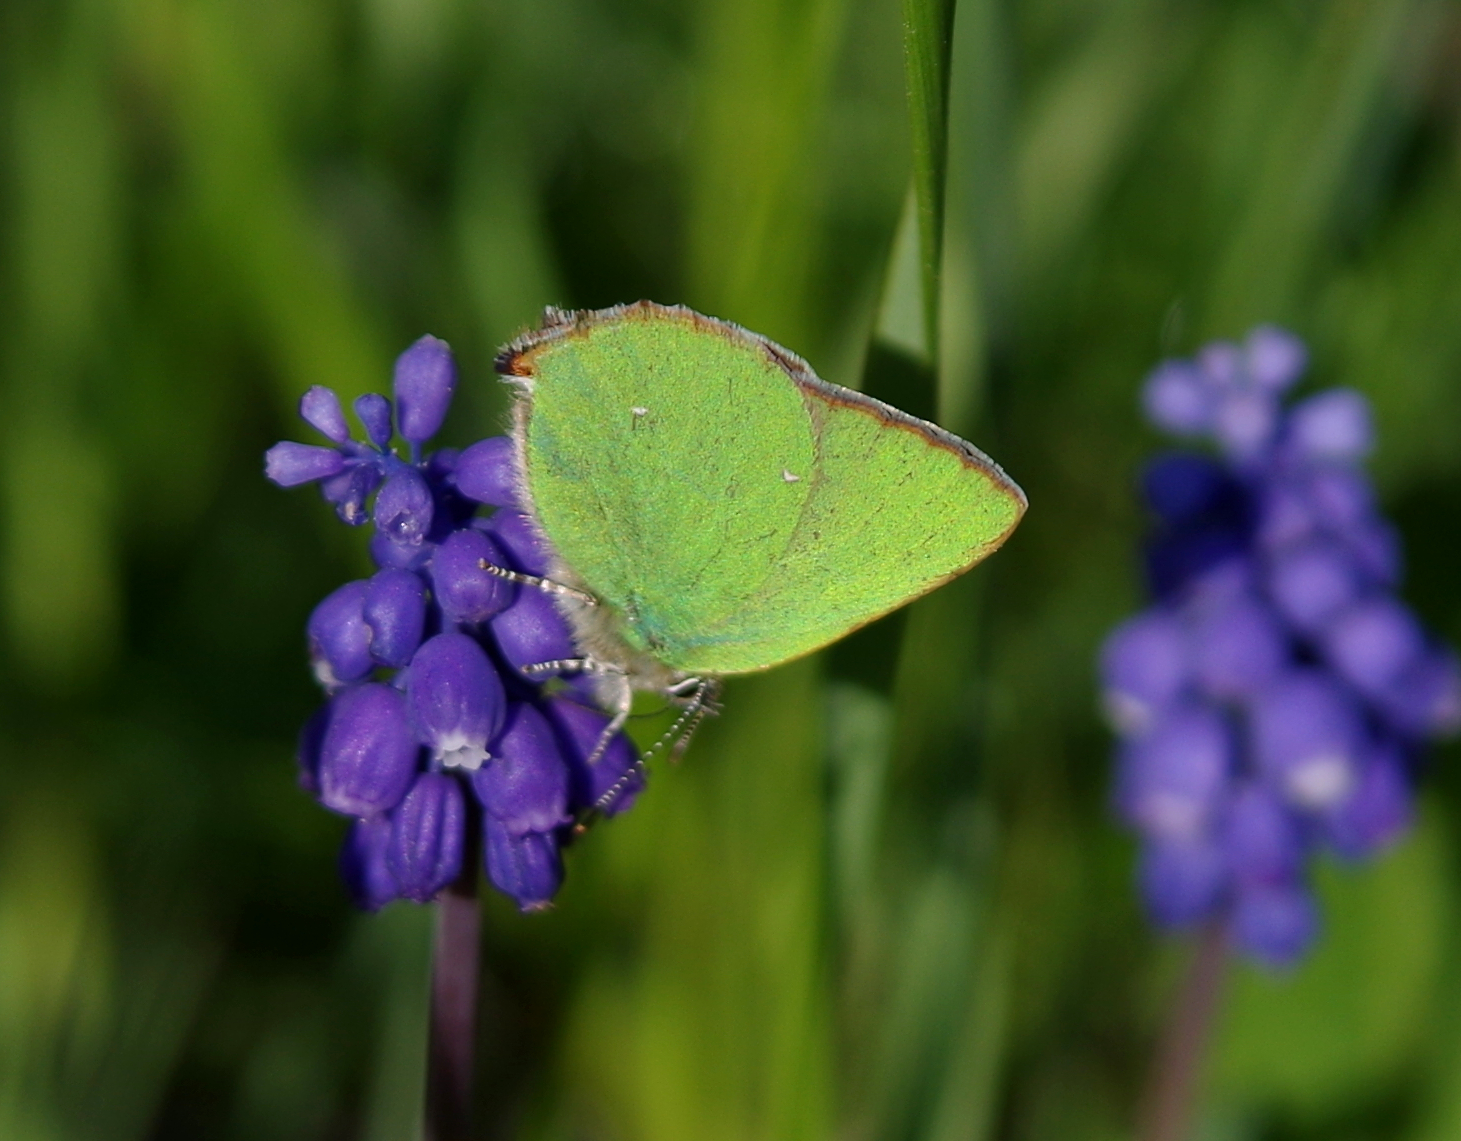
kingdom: Animalia
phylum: Arthropoda
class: Insecta
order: Lepidoptera
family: Lycaenidae
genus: Callophrys
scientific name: Callophrys rubi
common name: Green hairstreak
